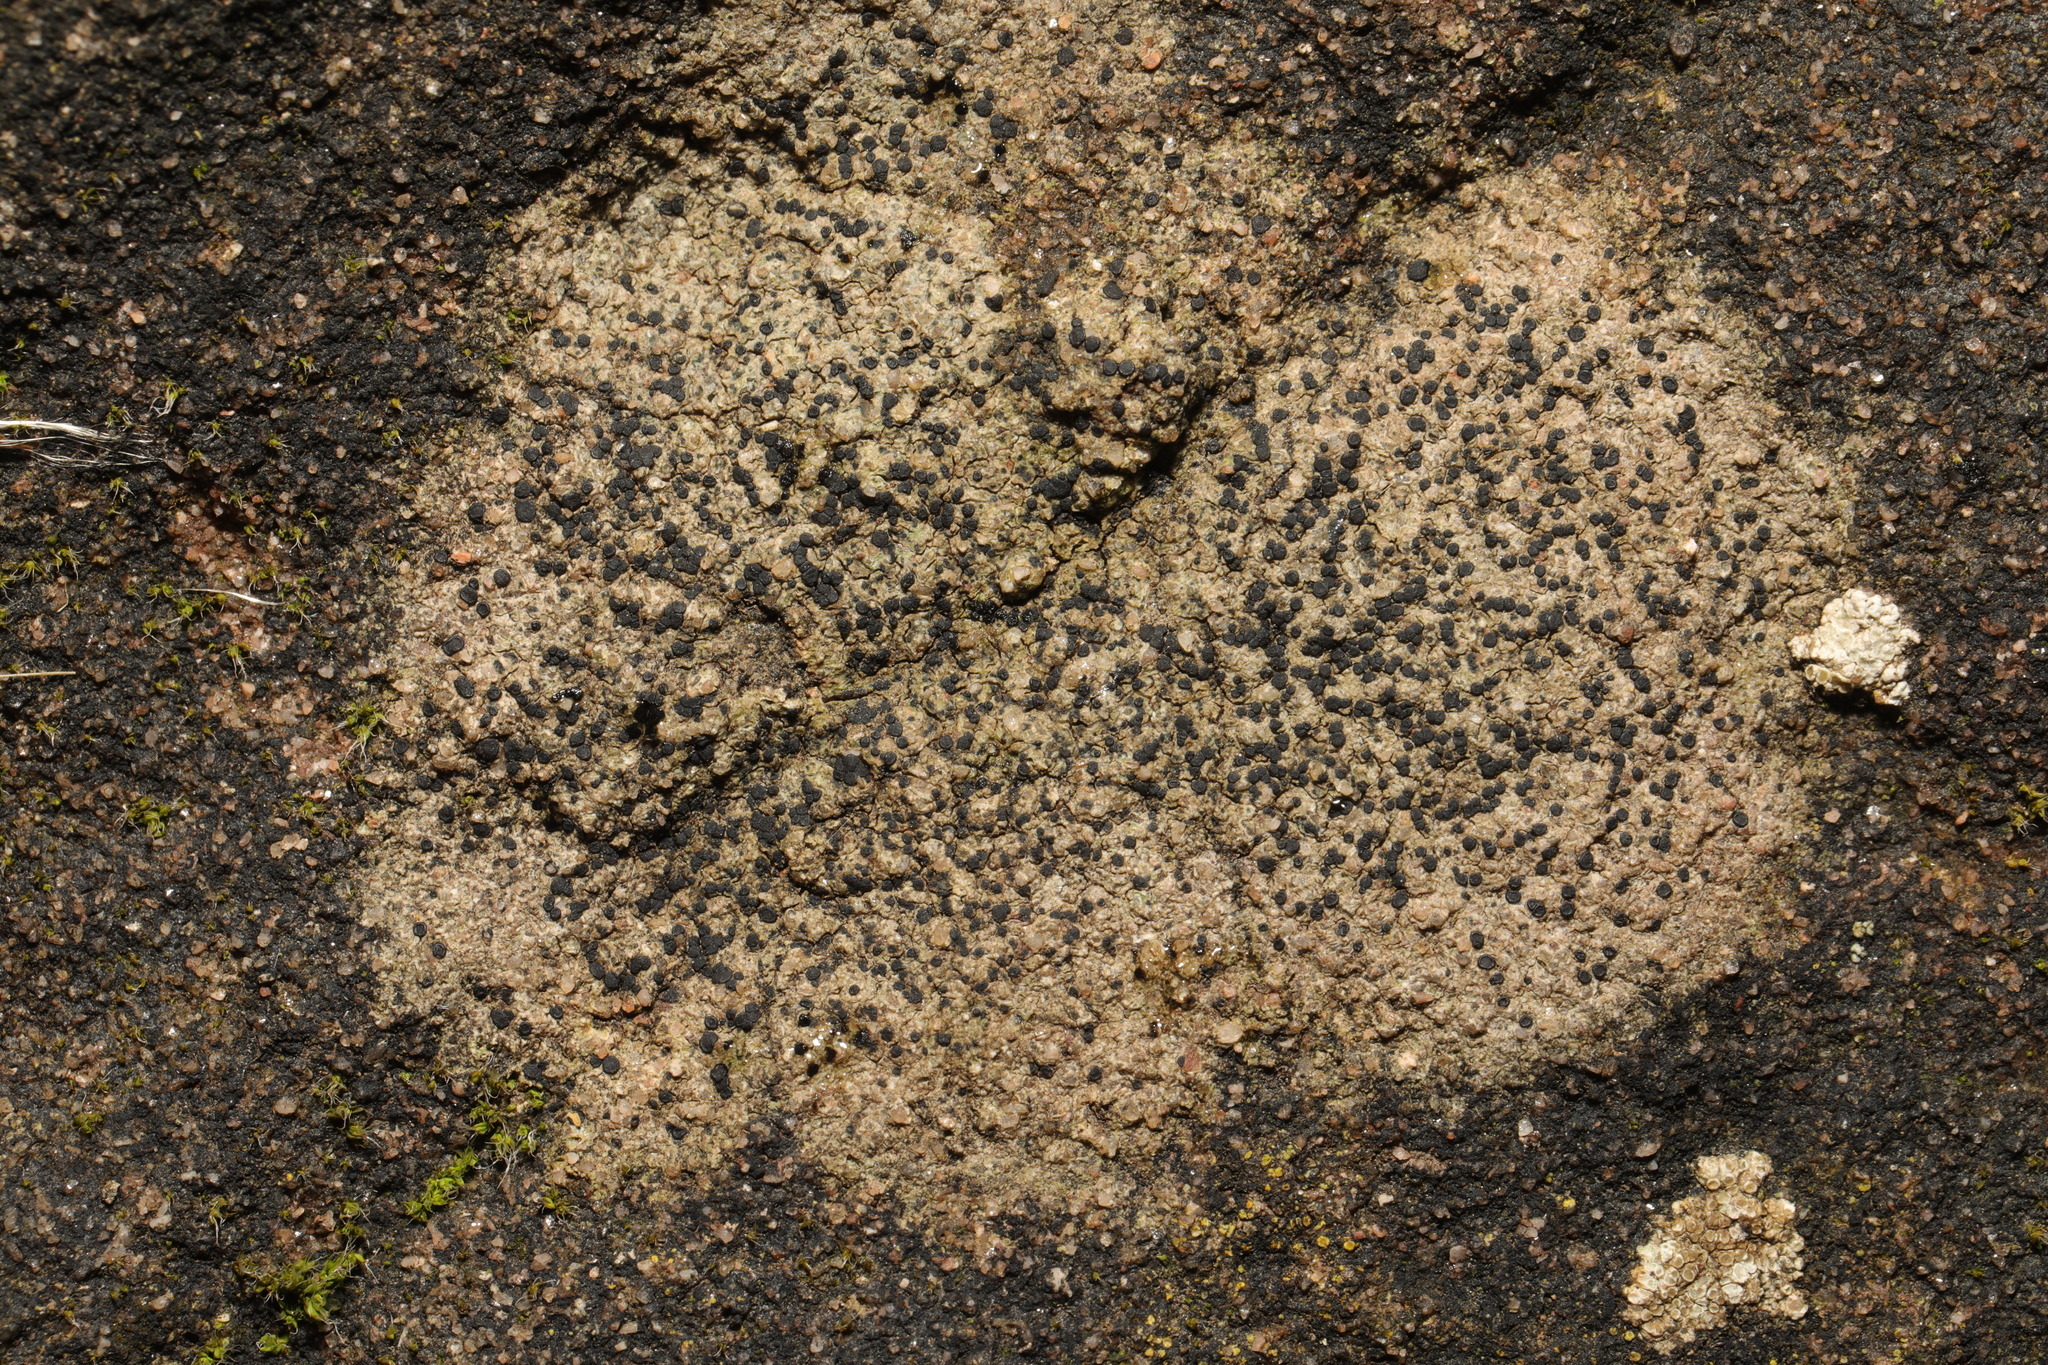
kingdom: Fungi
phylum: Ascomycota
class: Lecanoromycetes
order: Lecanorales
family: Lecanoraceae
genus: Lecidella
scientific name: Lecidella stigmatea
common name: Limestone disc lichen
